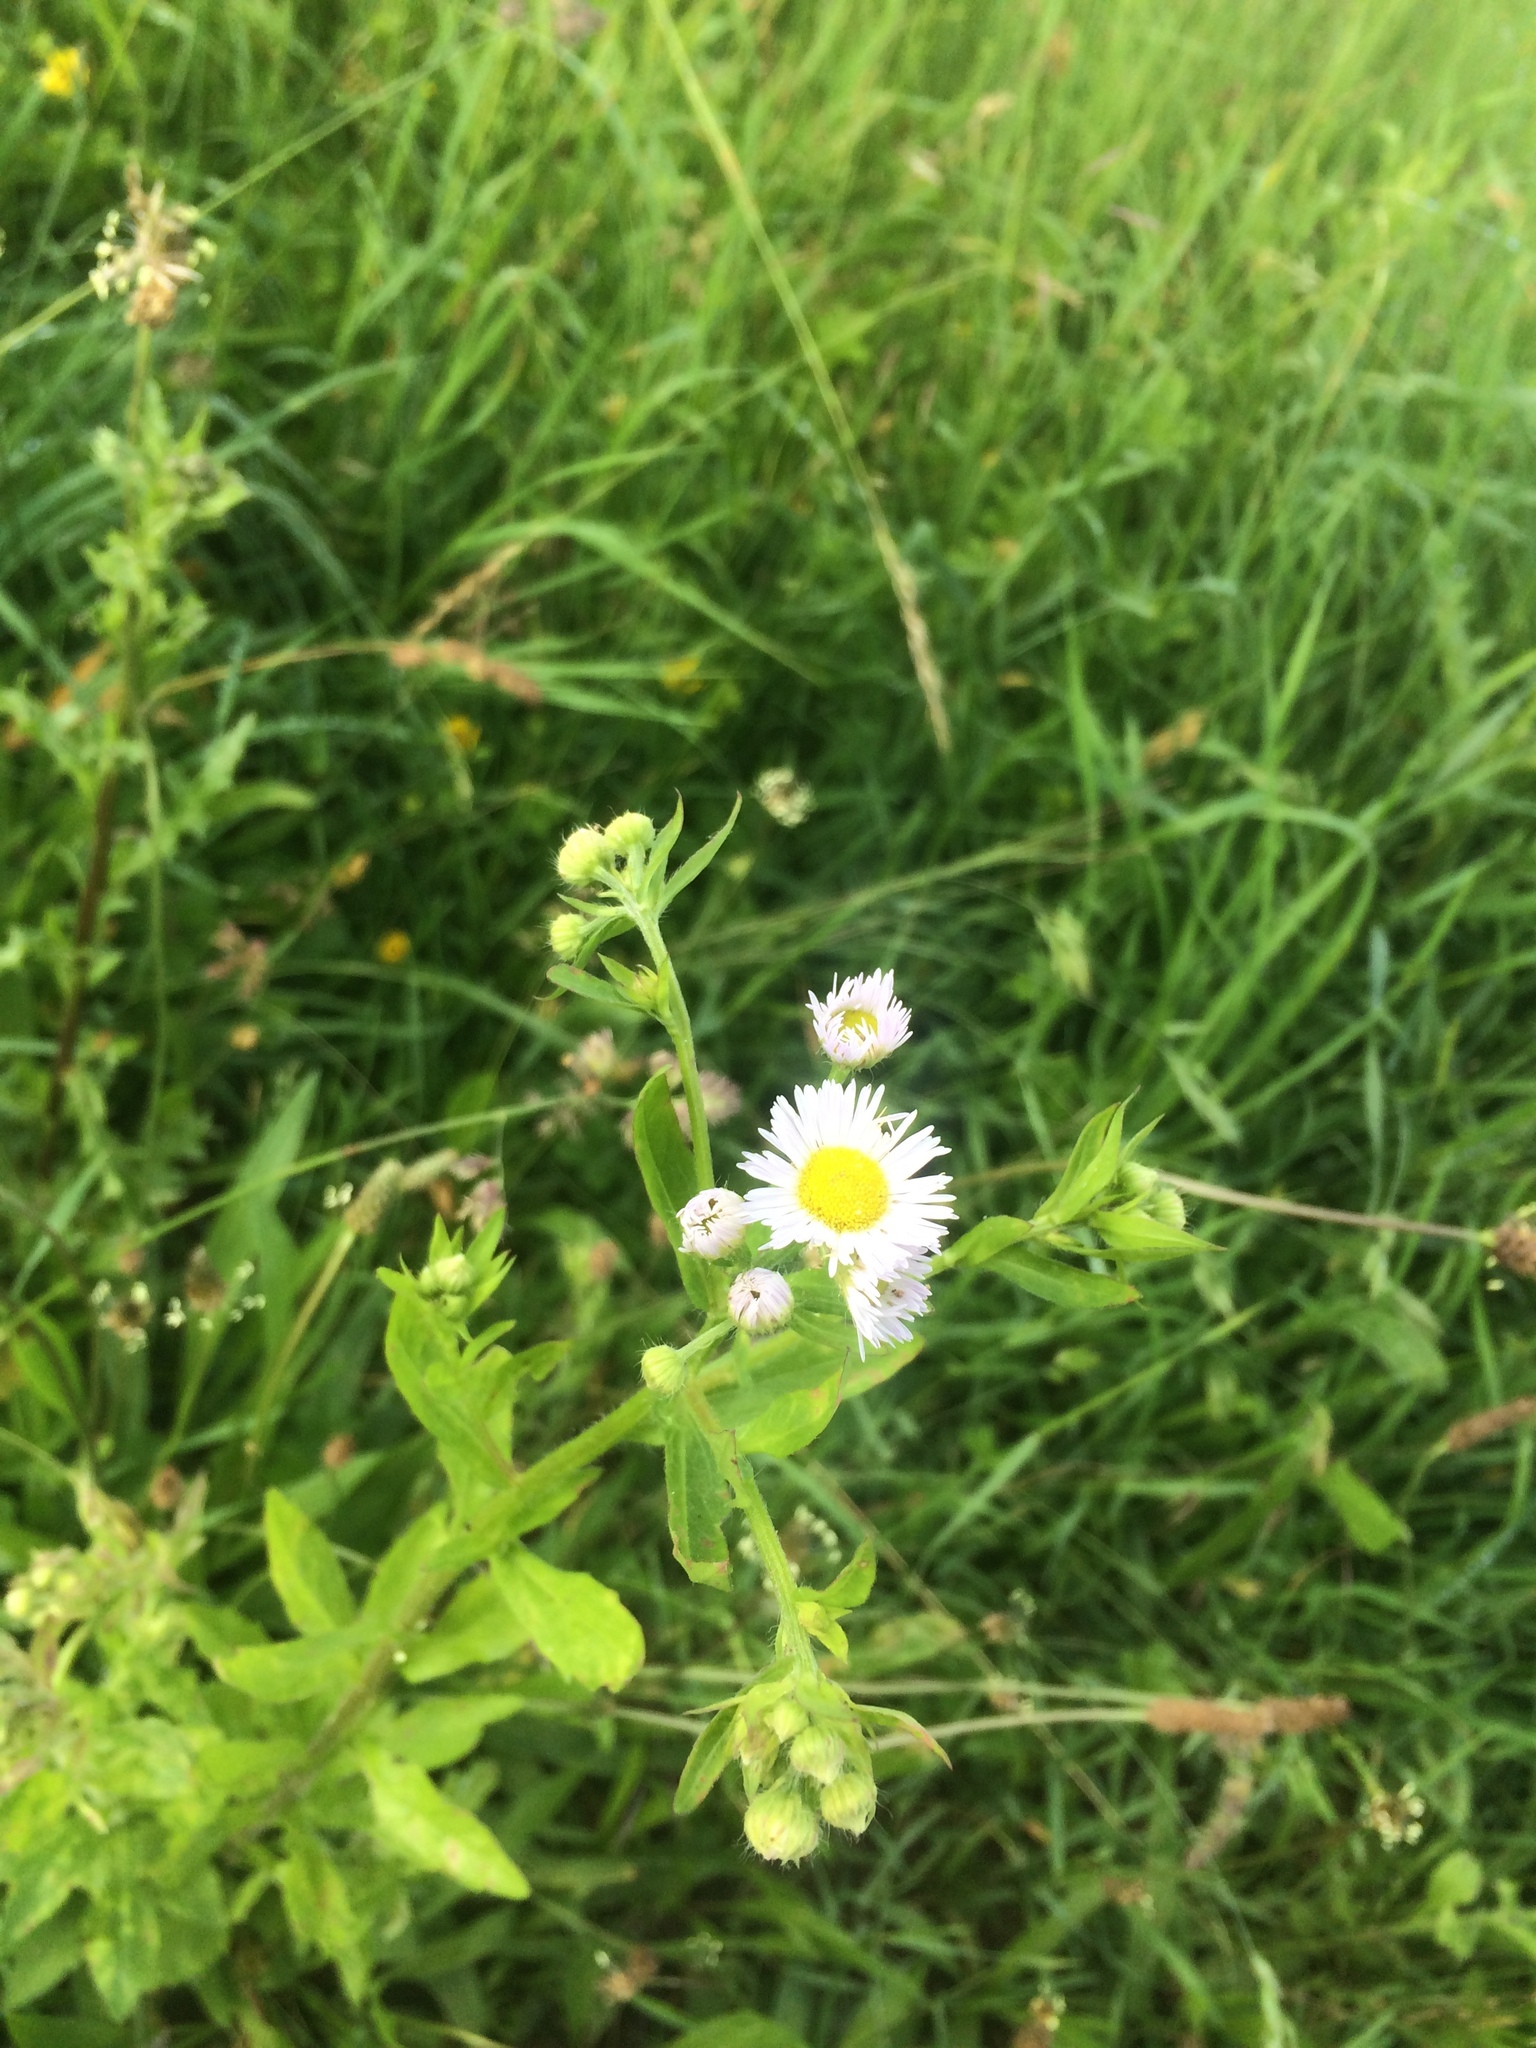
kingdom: Plantae
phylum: Tracheophyta
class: Magnoliopsida
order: Asterales
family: Asteraceae
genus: Erigeron
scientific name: Erigeron annuus
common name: Tall fleabane
